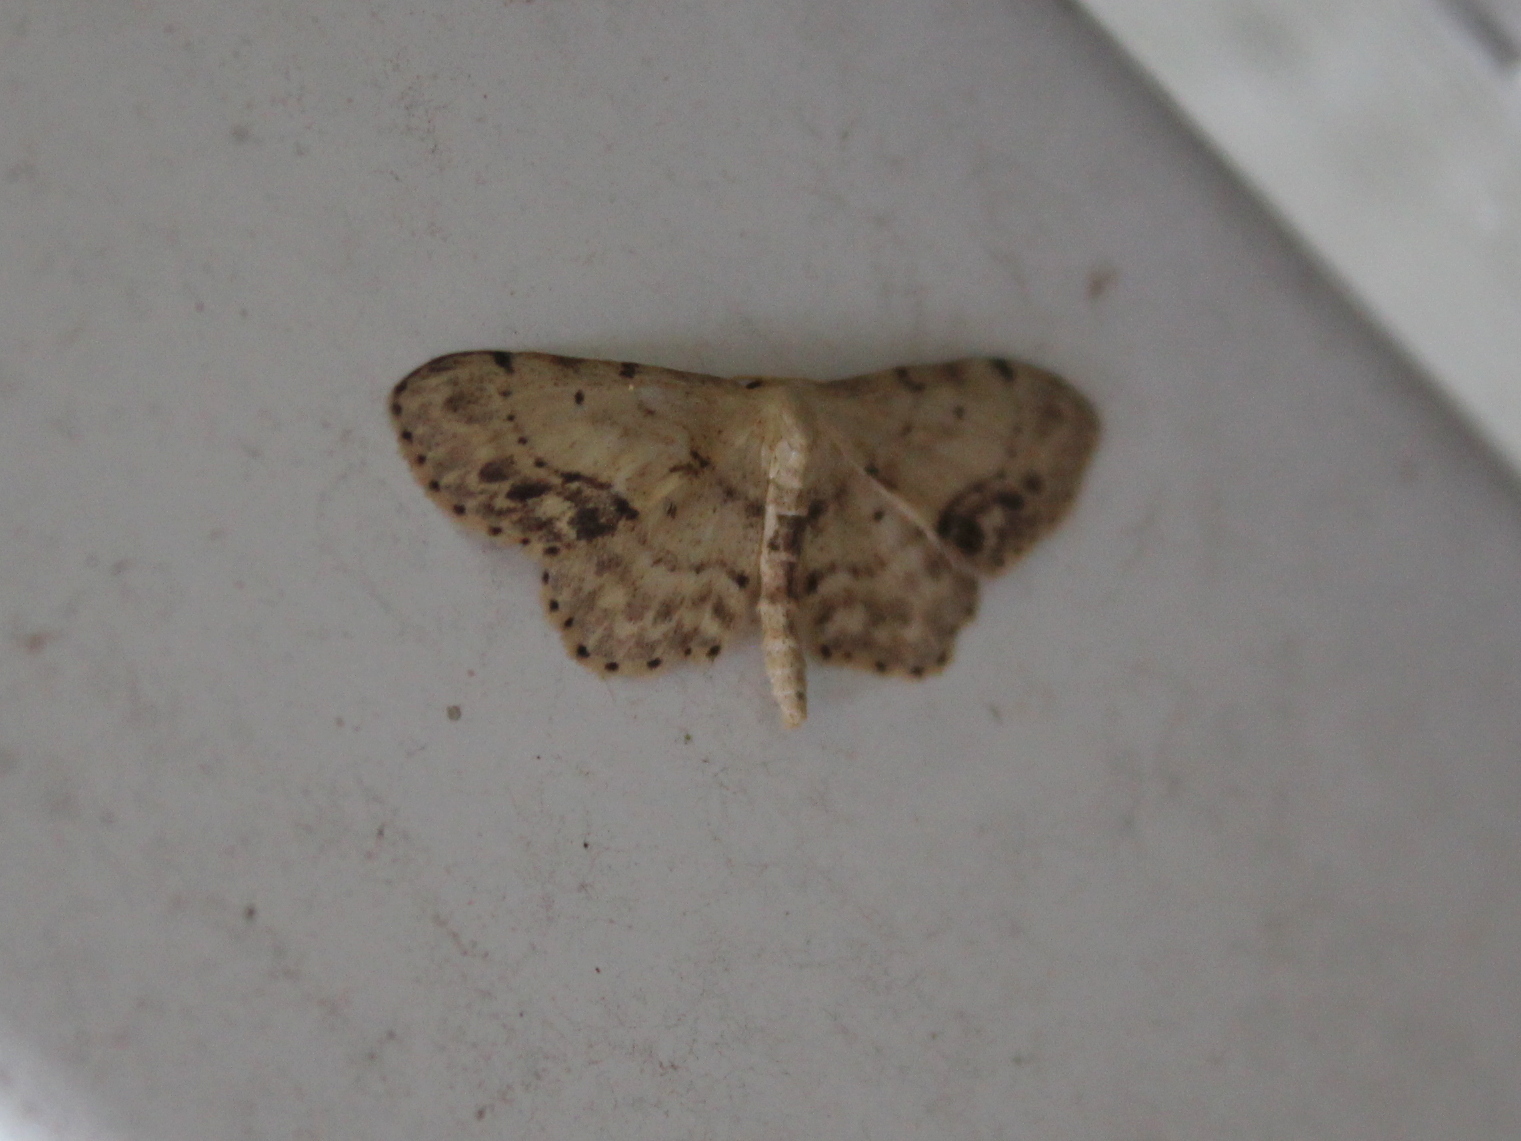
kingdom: Animalia
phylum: Arthropoda
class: Insecta
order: Lepidoptera
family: Geometridae
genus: Idaea
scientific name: Idaea dimidiata
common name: Single-dotted wave
